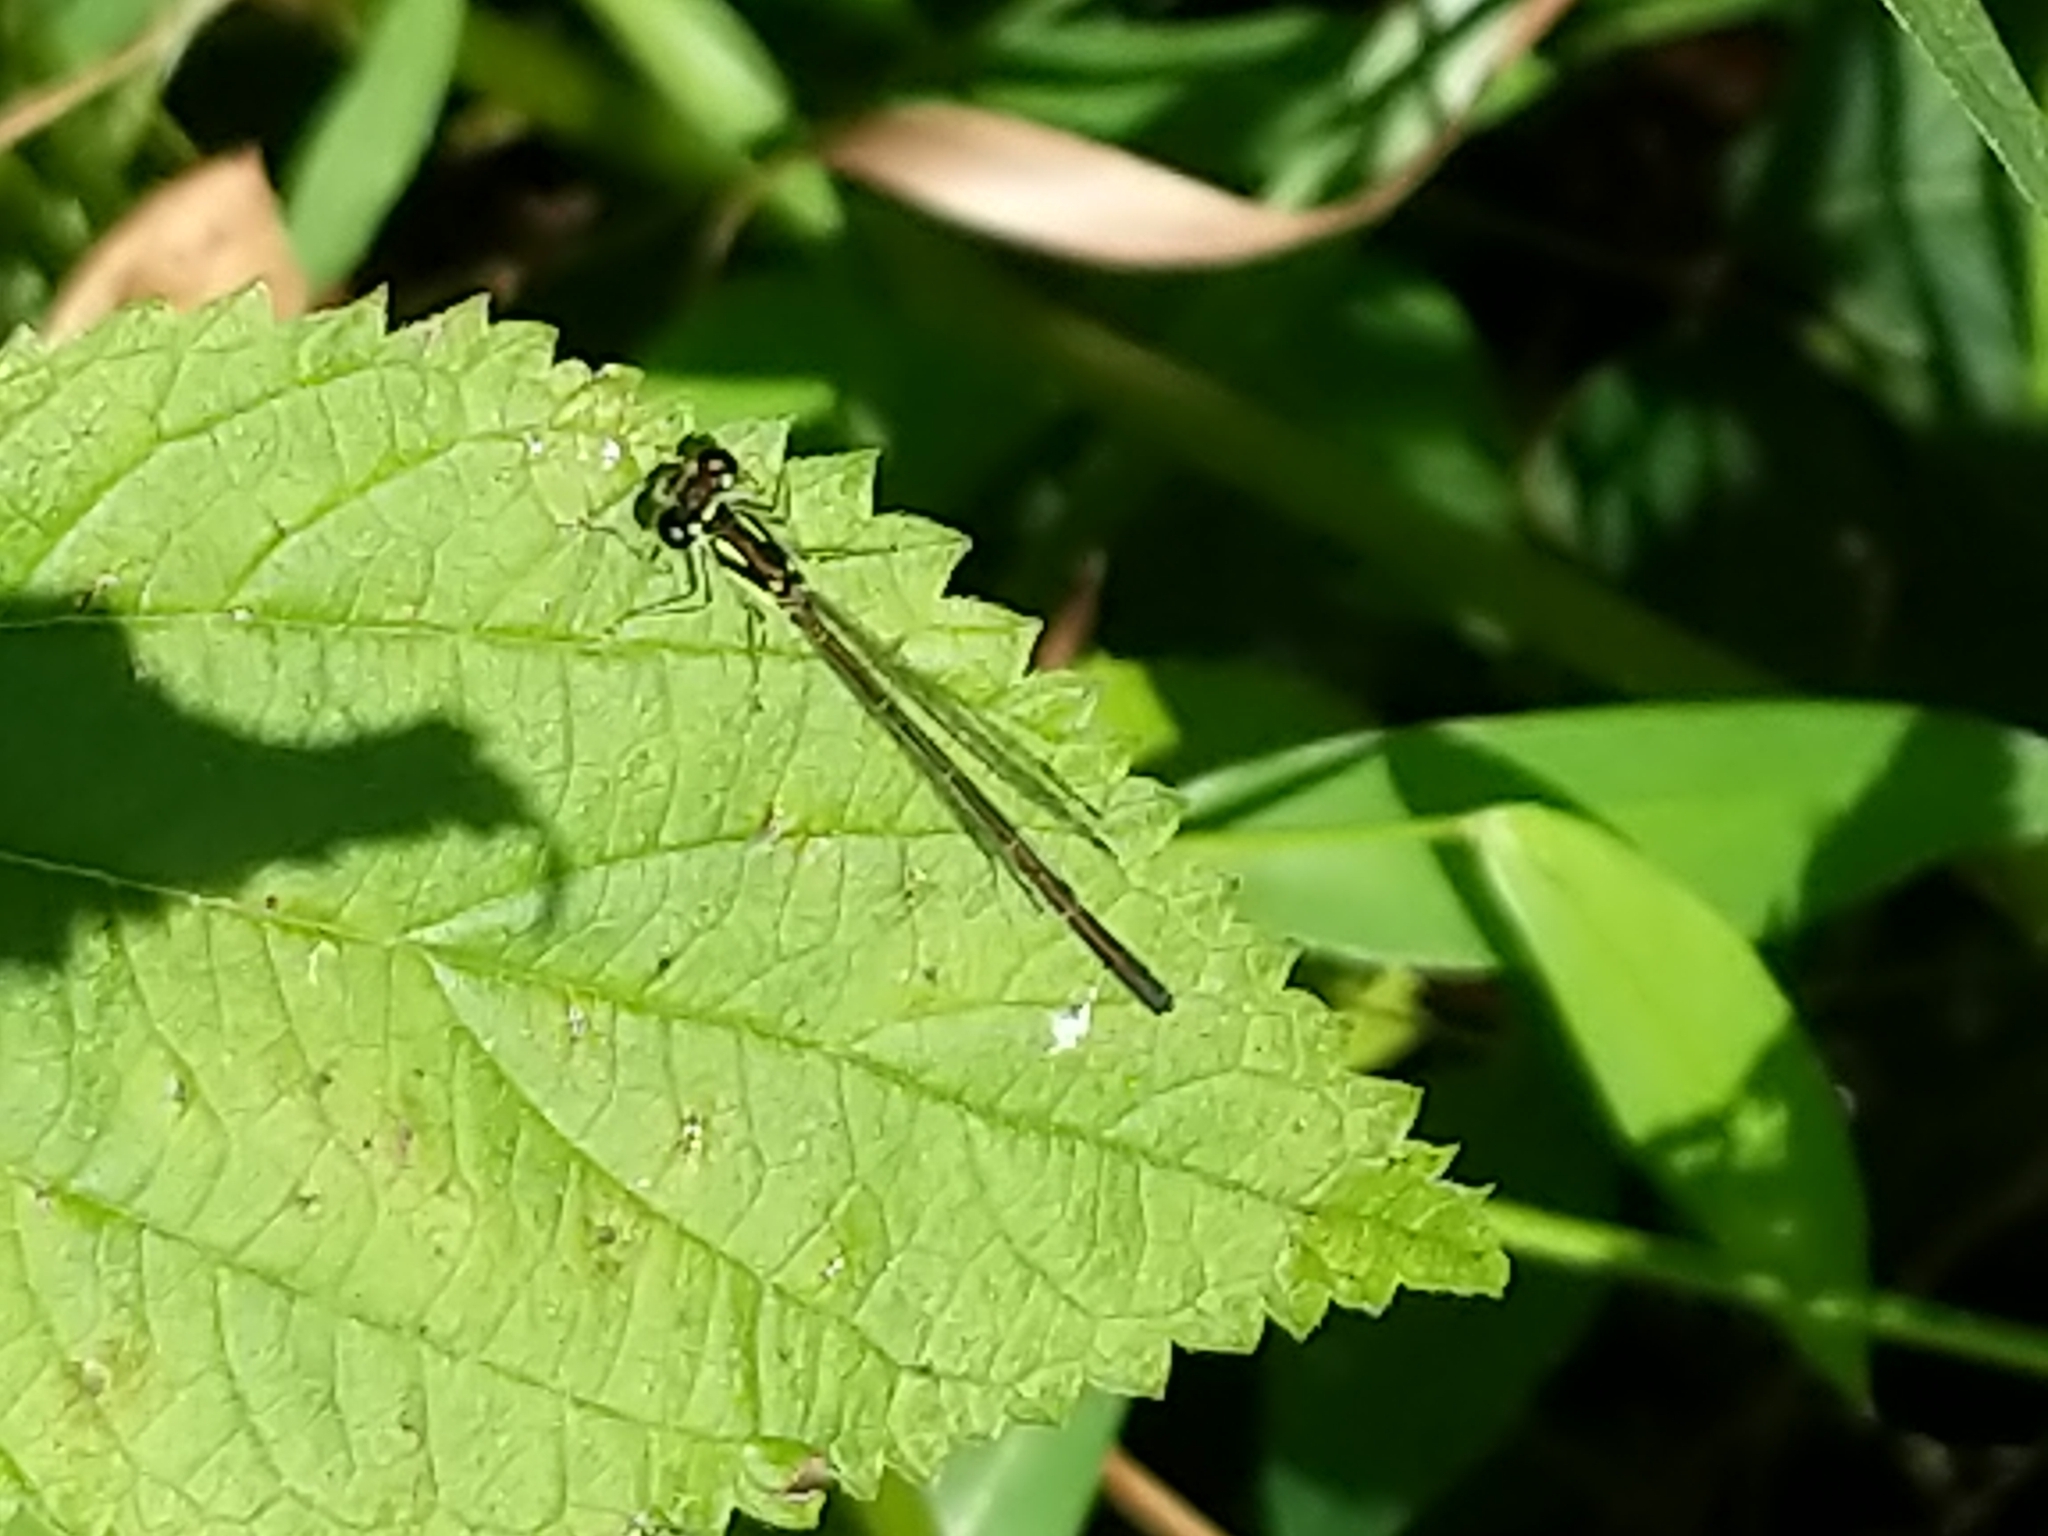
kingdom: Animalia
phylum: Arthropoda
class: Insecta
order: Odonata
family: Coenagrionidae
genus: Ischnura
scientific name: Ischnura posita
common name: Fragile forktail
